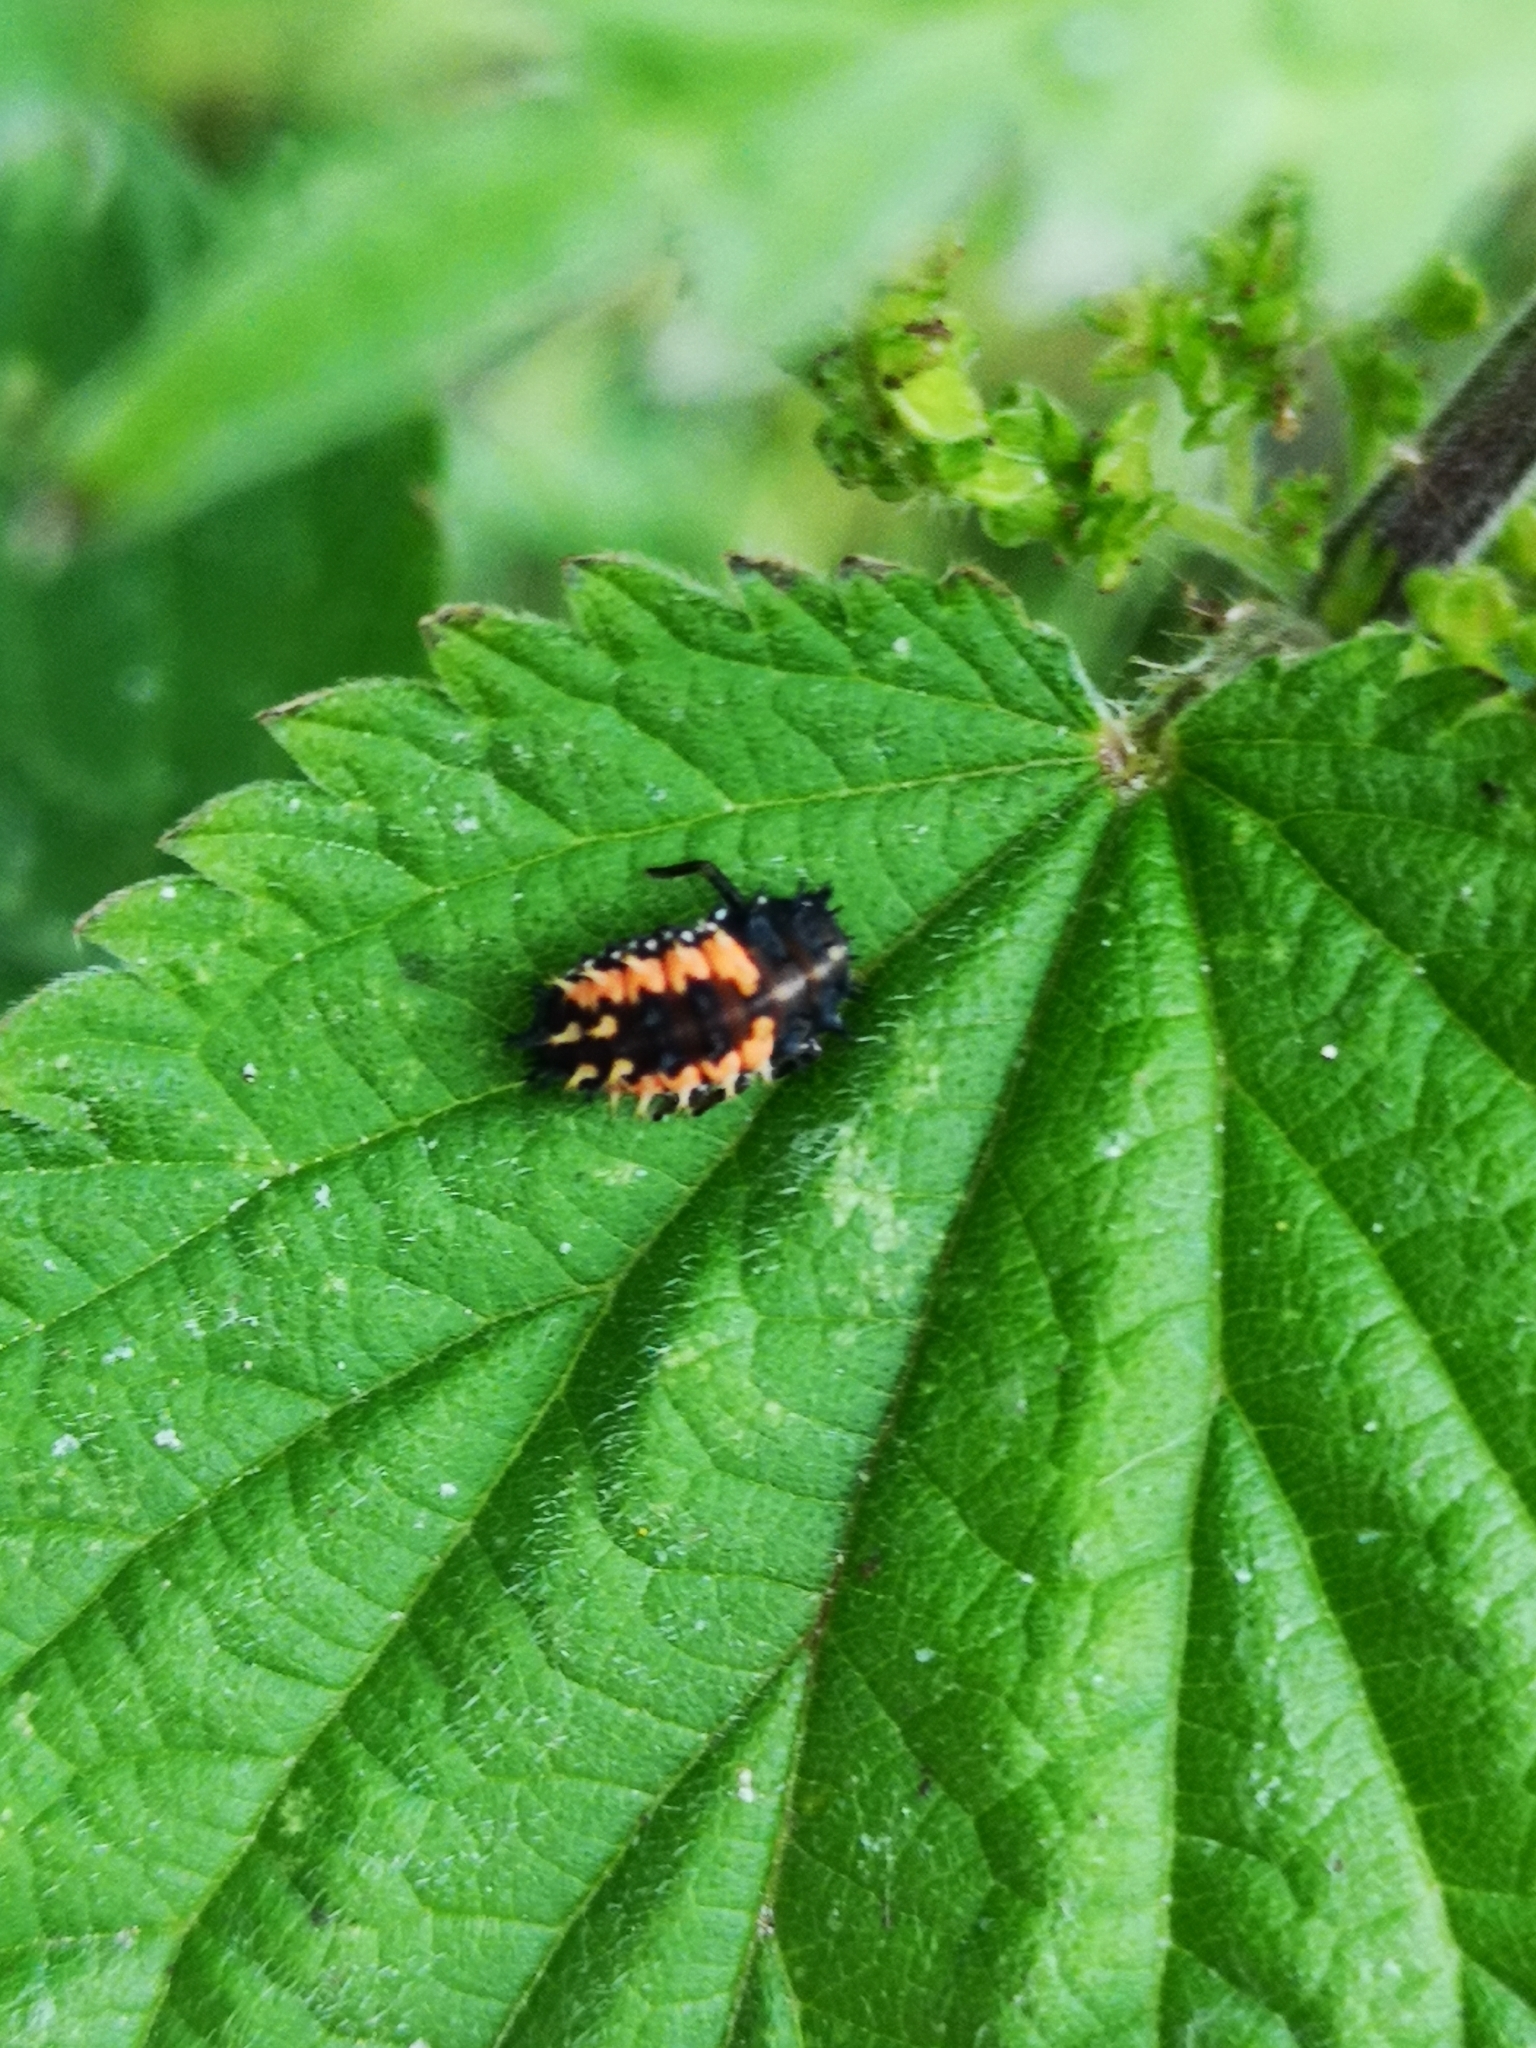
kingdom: Animalia
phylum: Arthropoda
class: Insecta
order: Coleoptera
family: Coccinellidae
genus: Harmonia
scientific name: Harmonia axyridis
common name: Harlequin ladybird
